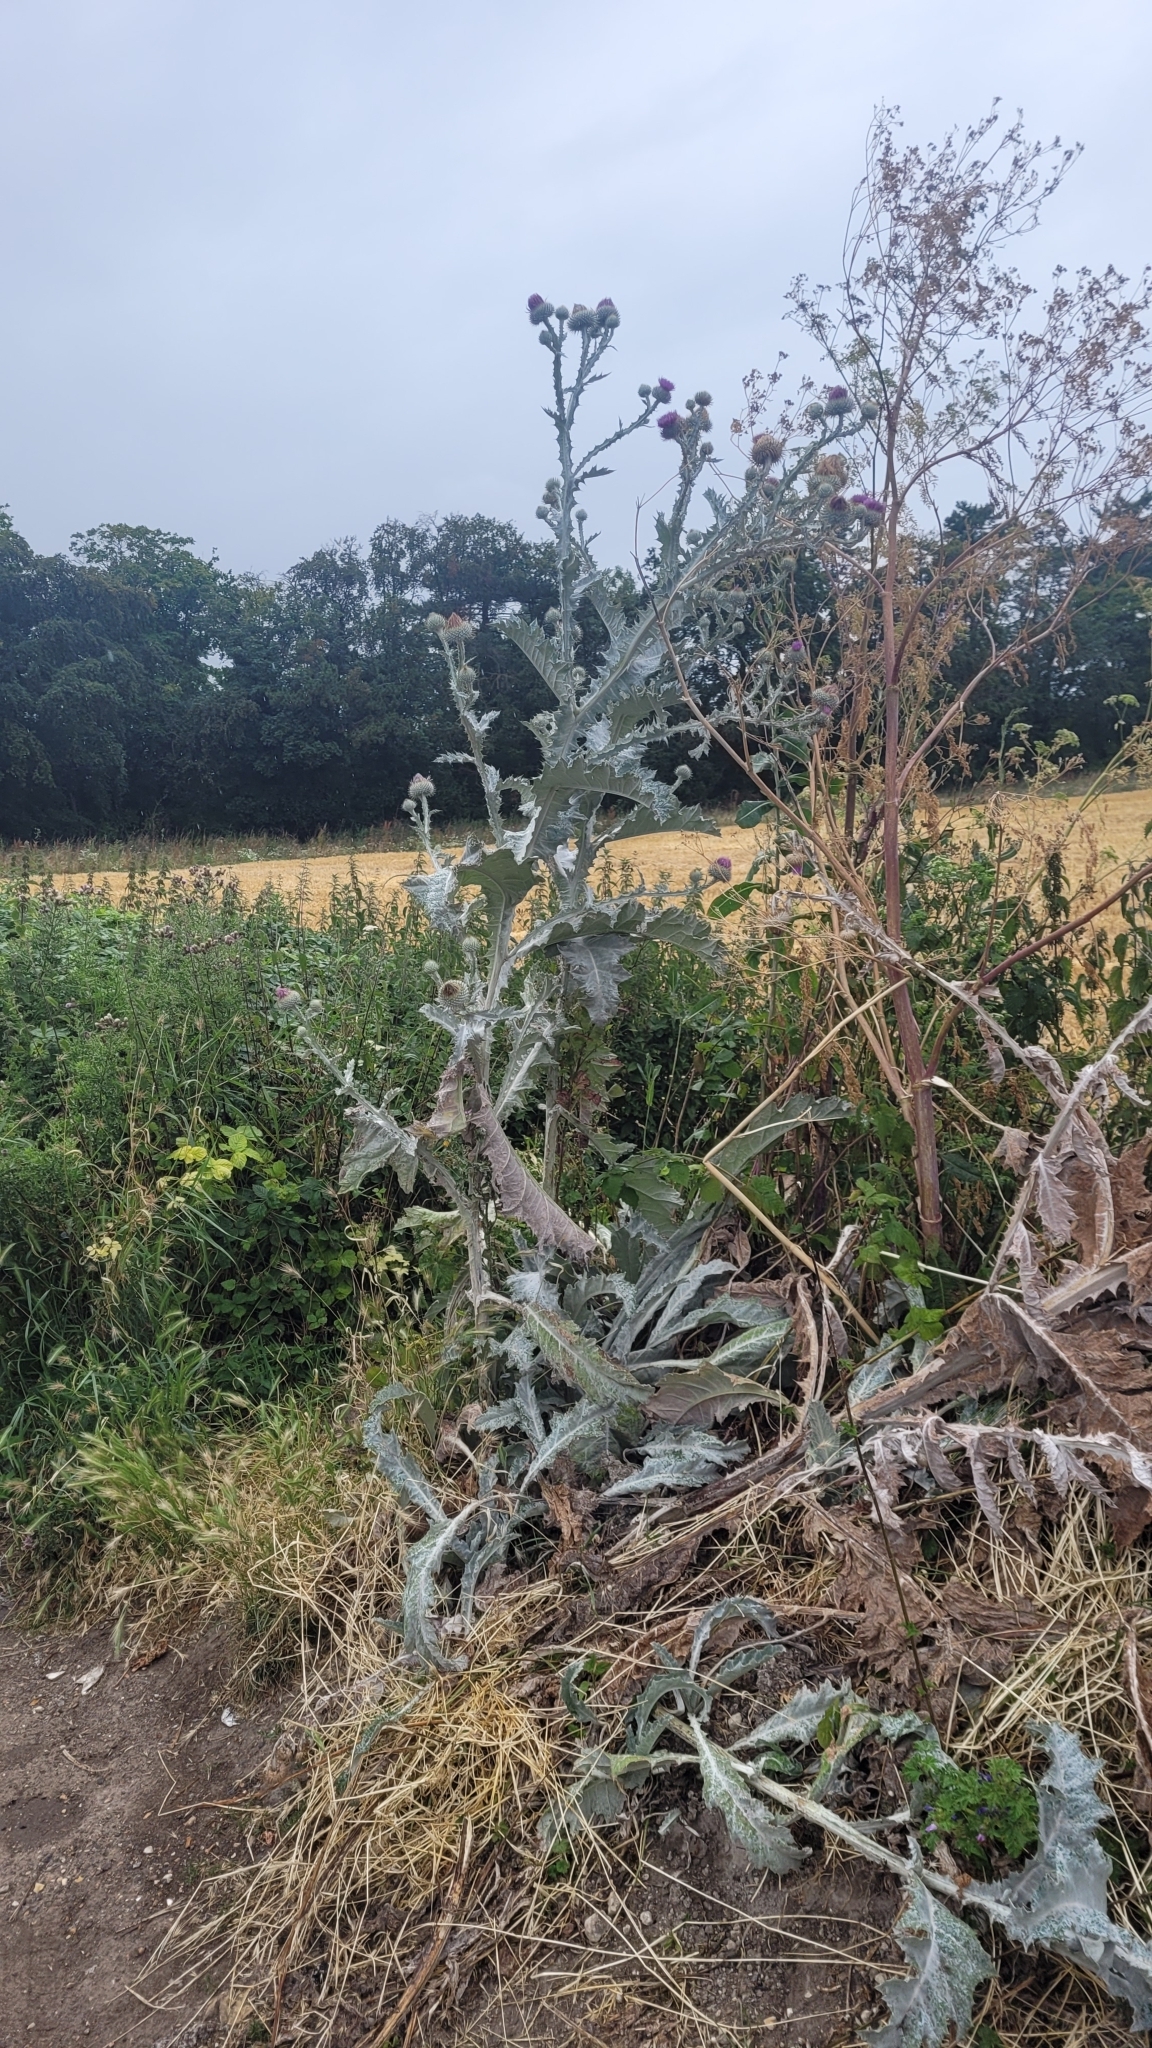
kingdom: Plantae
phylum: Tracheophyta
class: Magnoliopsida
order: Asterales
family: Asteraceae
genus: Onopordum
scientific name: Onopordum acanthium
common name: Scotch thistle
